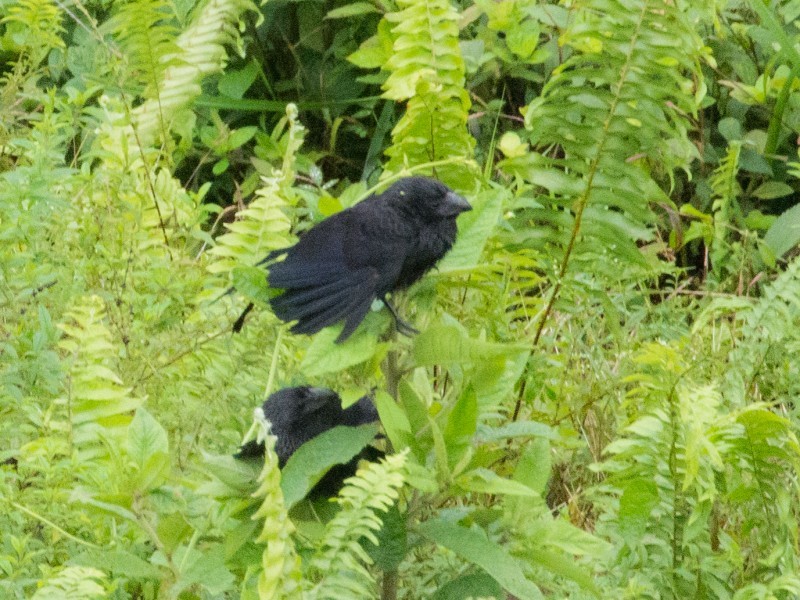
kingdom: Animalia
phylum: Chordata
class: Aves
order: Cuculiformes
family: Cuculidae
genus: Crotophaga
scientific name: Crotophaga sulcirostris
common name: Groove-billed ani
